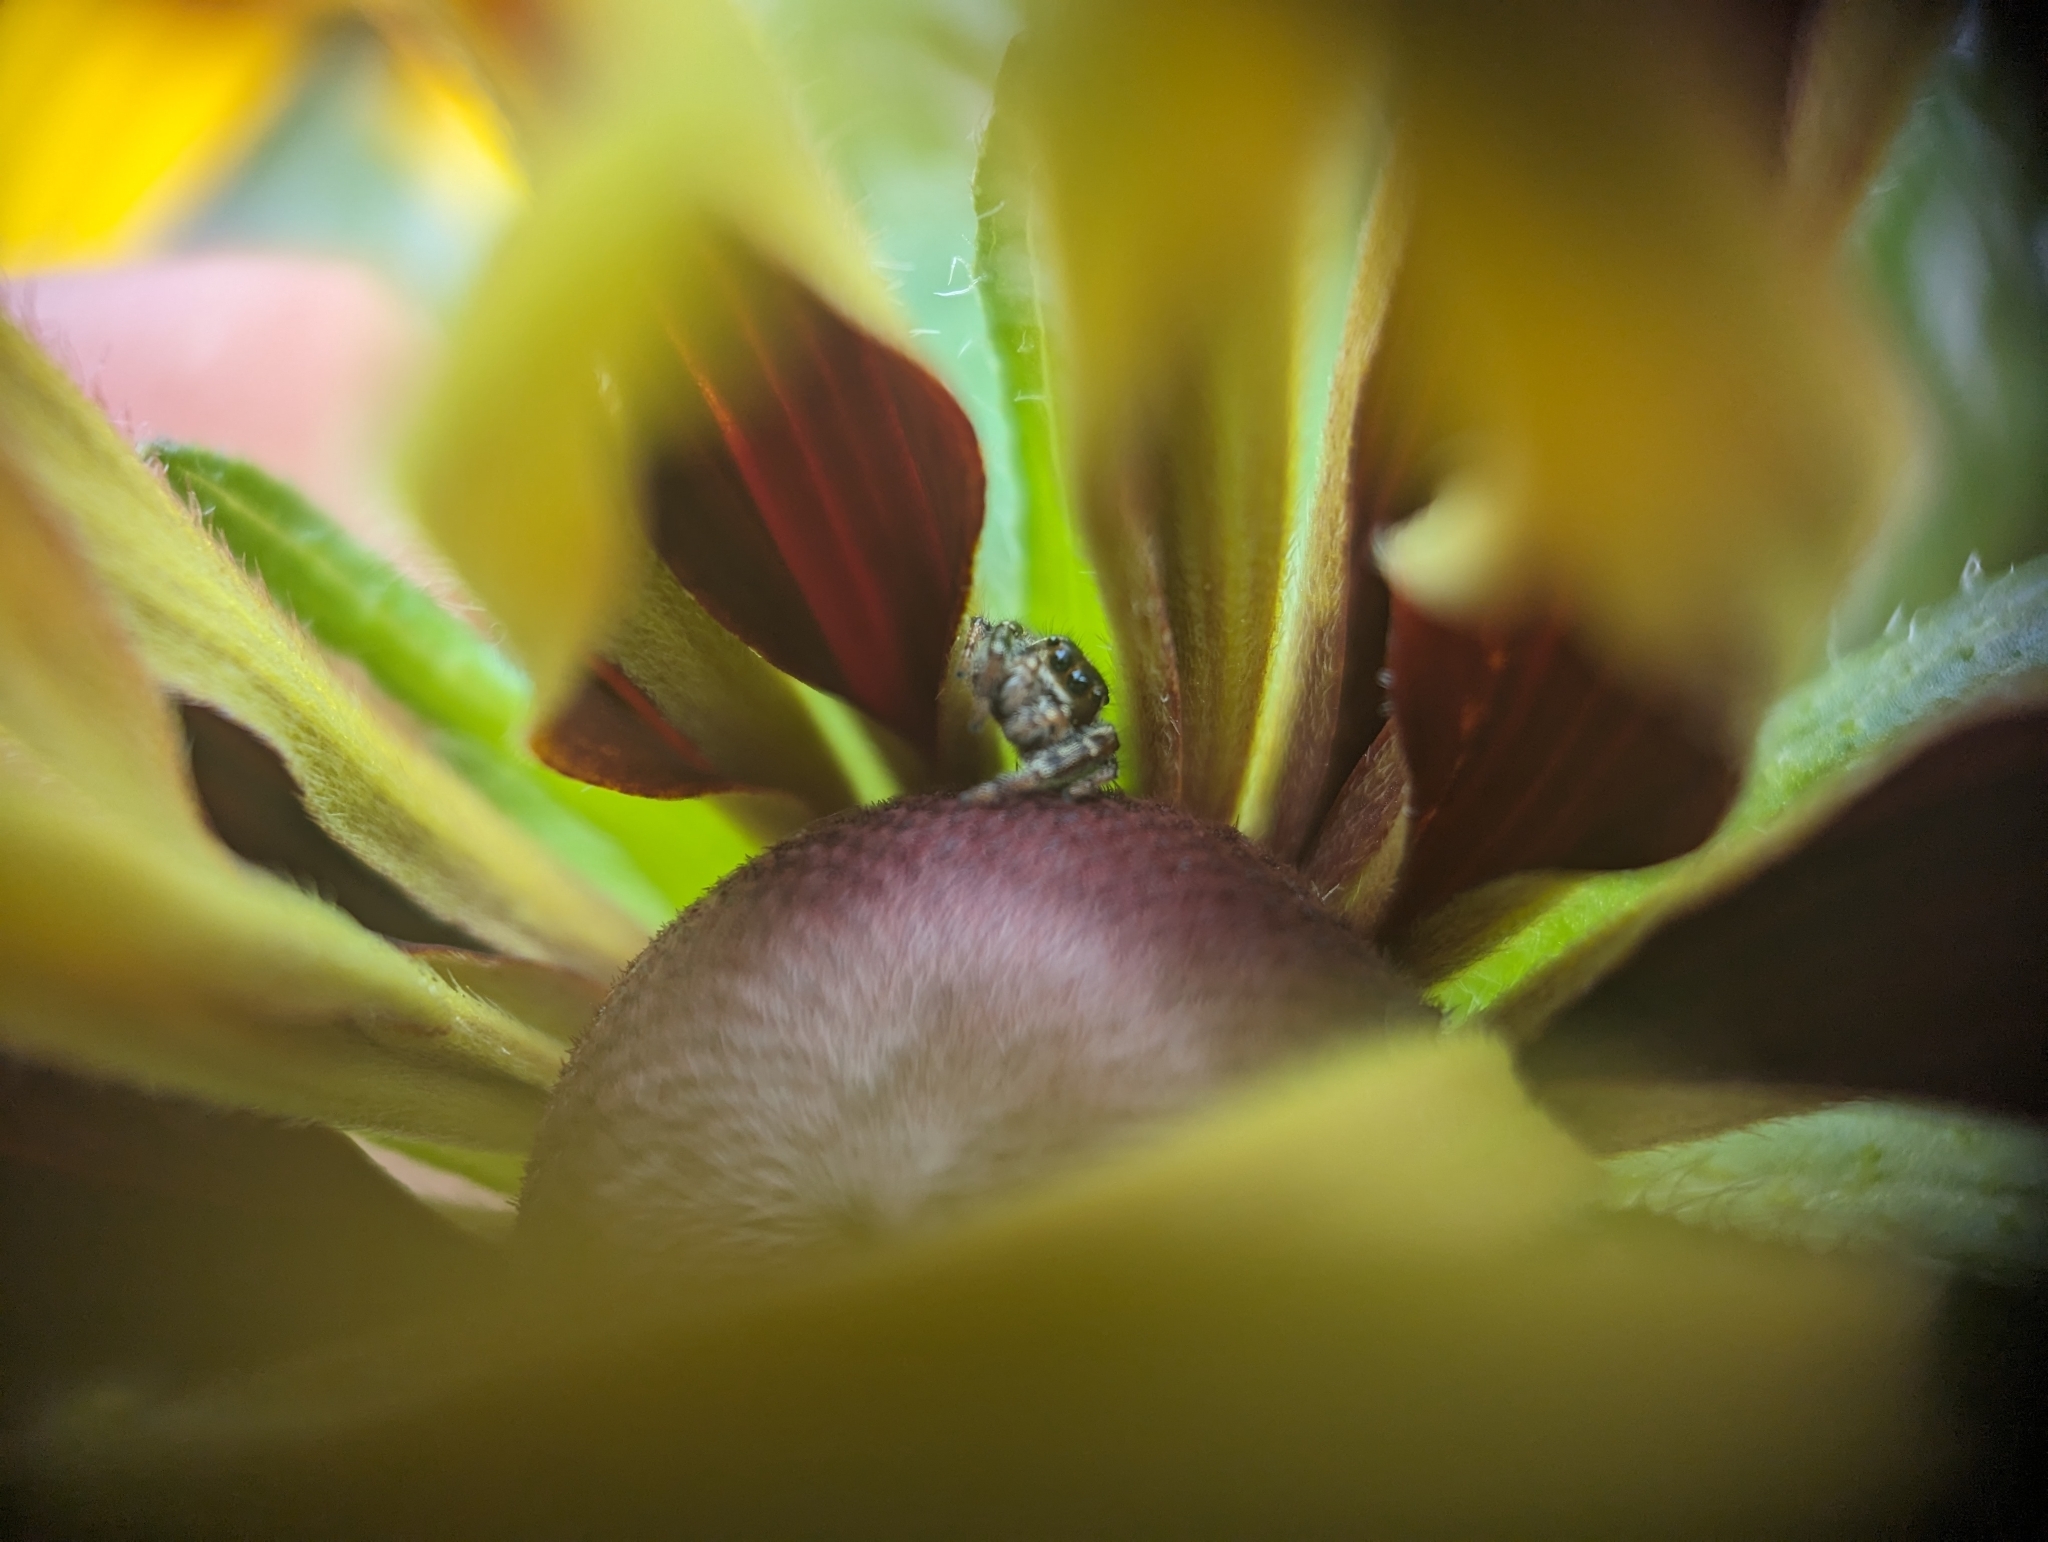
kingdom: Animalia
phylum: Arthropoda
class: Arachnida
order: Araneae
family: Salticidae
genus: Eris
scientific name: Eris militaris
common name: Bronze jumper
